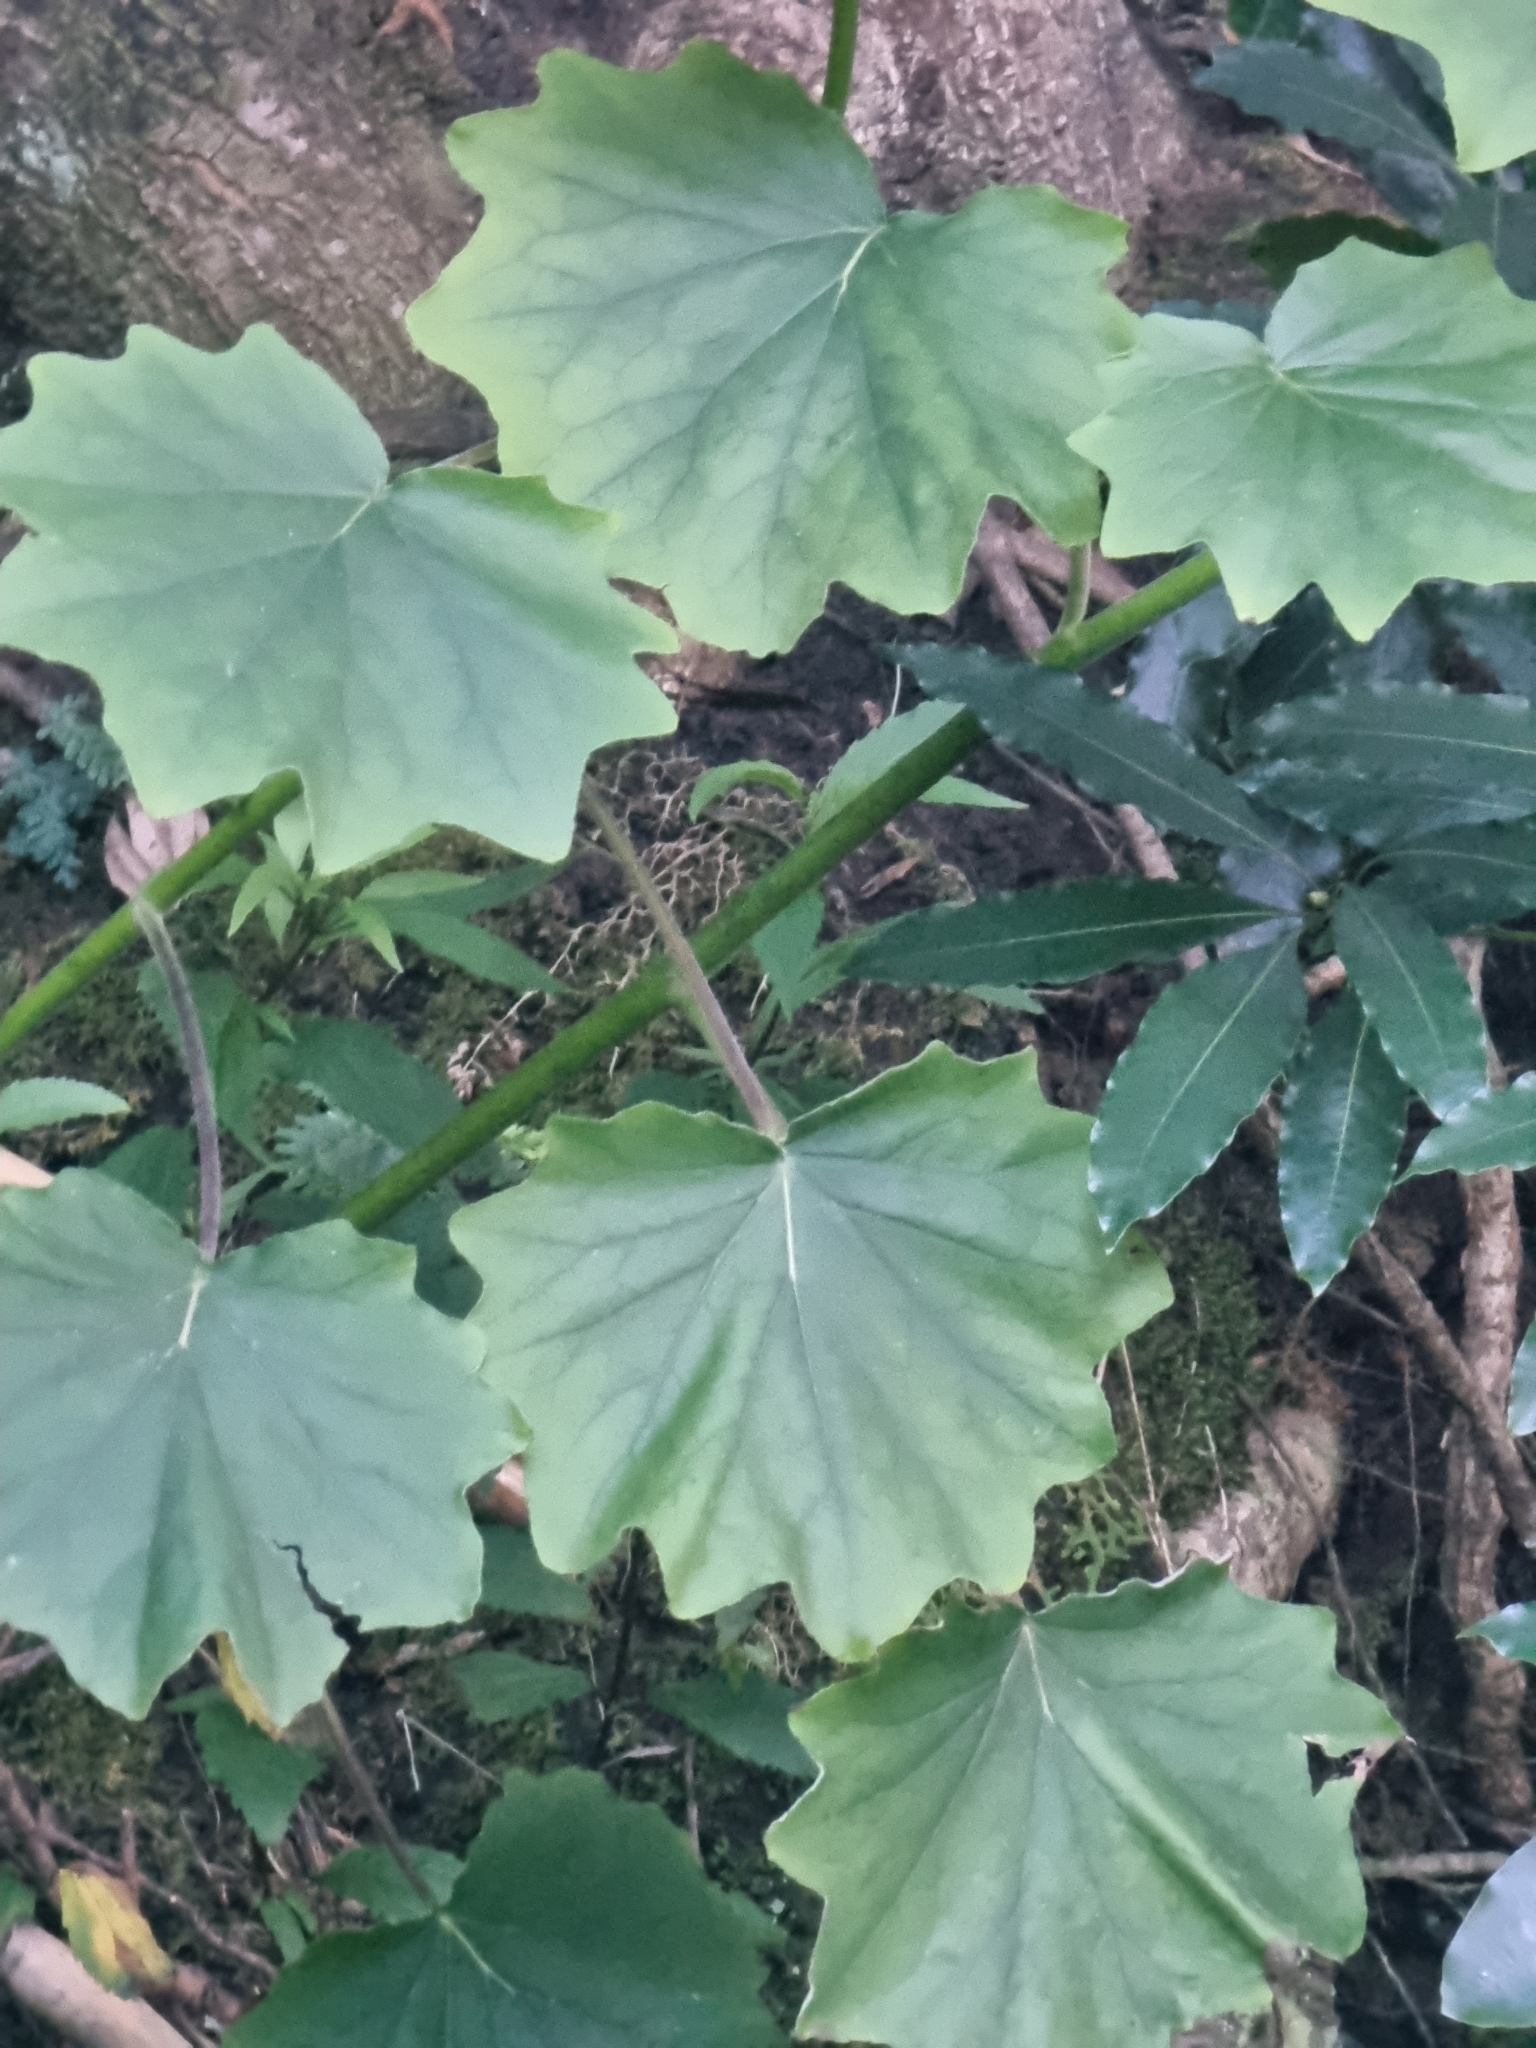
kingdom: Plantae
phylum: Tracheophyta
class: Magnoliopsida
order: Asterales
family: Asteraceae
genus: Roldana
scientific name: Roldana petasitis
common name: California-geranium
